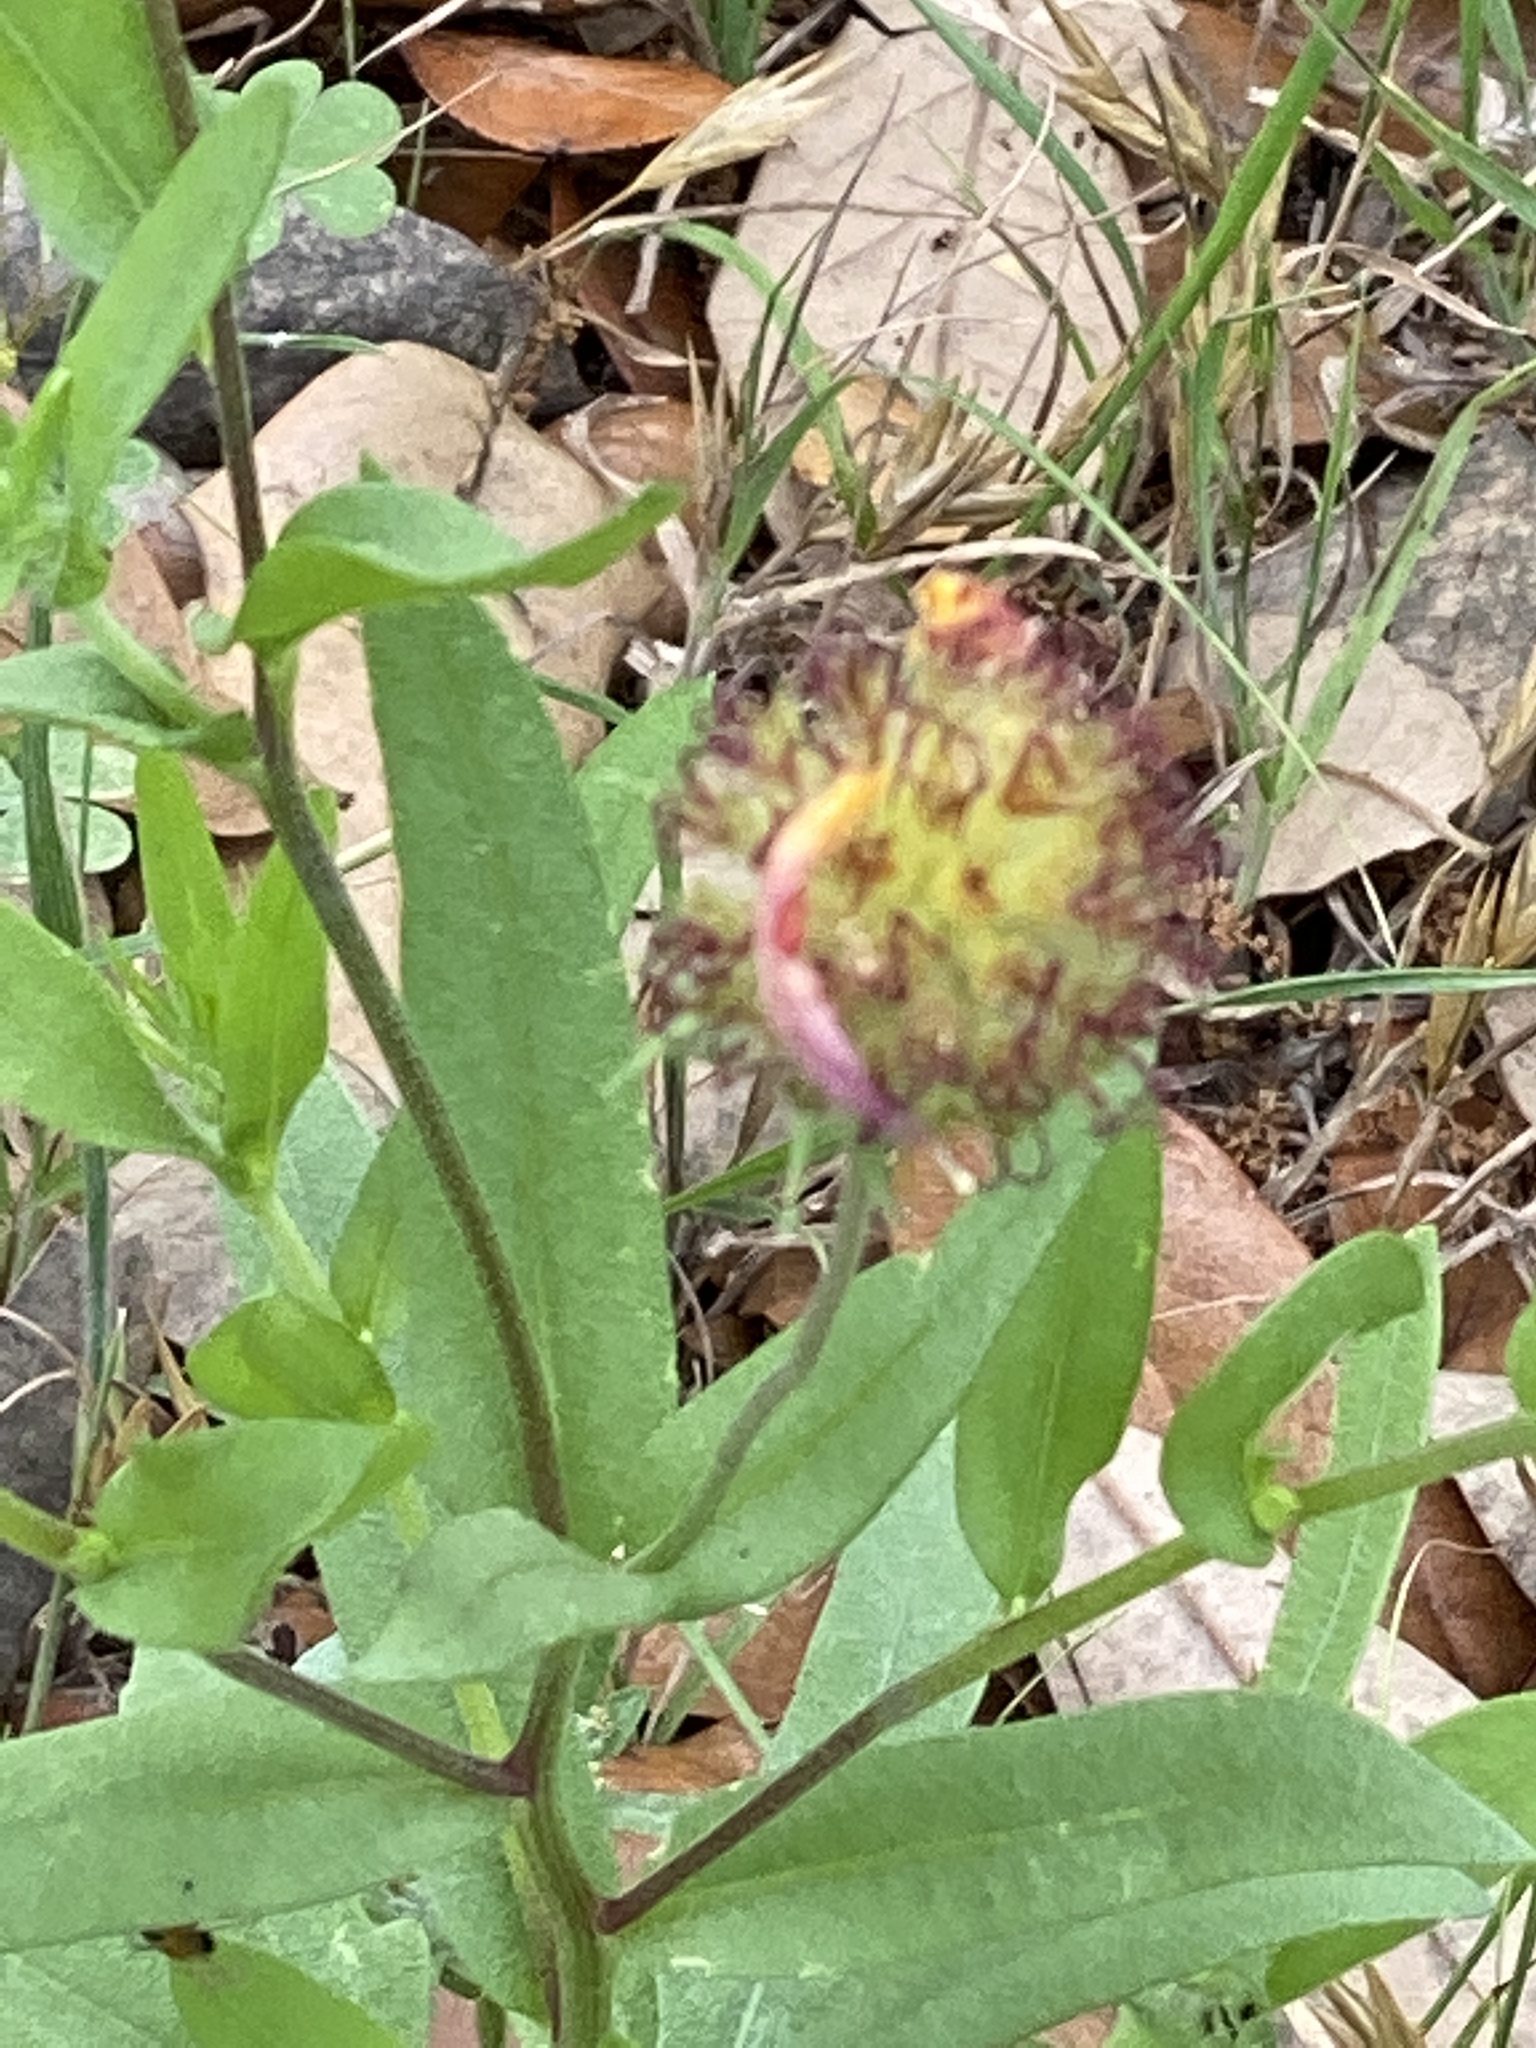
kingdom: Plantae
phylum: Tracheophyta
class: Magnoliopsida
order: Asterales
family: Asteraceae
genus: Gaillardia
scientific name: Gaillardia suavis
